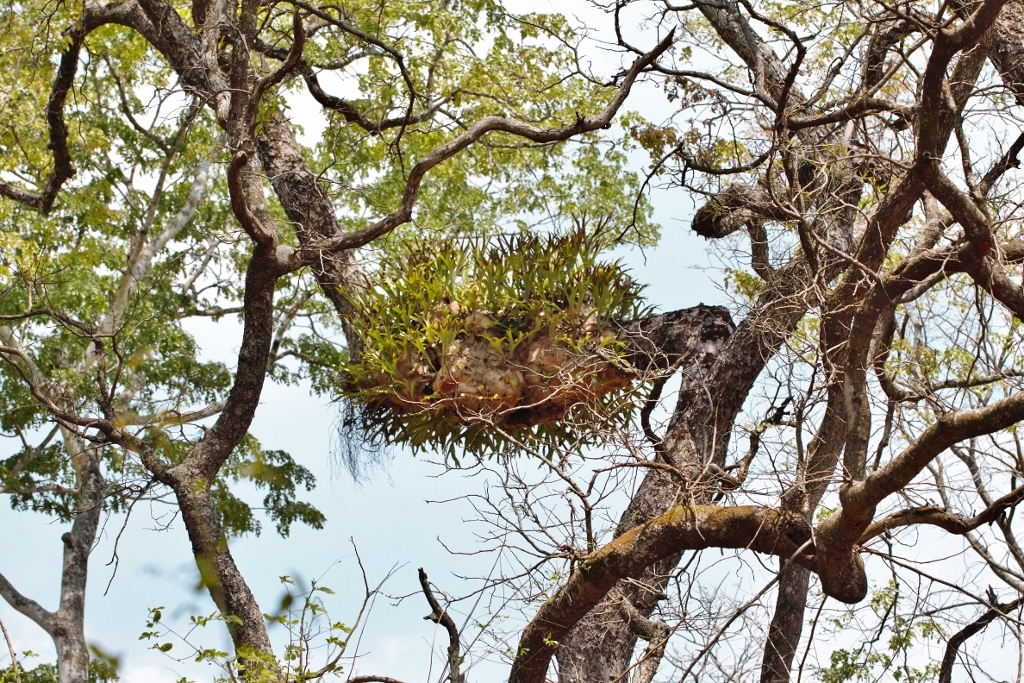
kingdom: Plantae
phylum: Tracheophyta
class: Polypodiopsida
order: Polypodiales
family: Polypodiaceae
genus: Platycerium
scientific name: Platycerium alcicorne
